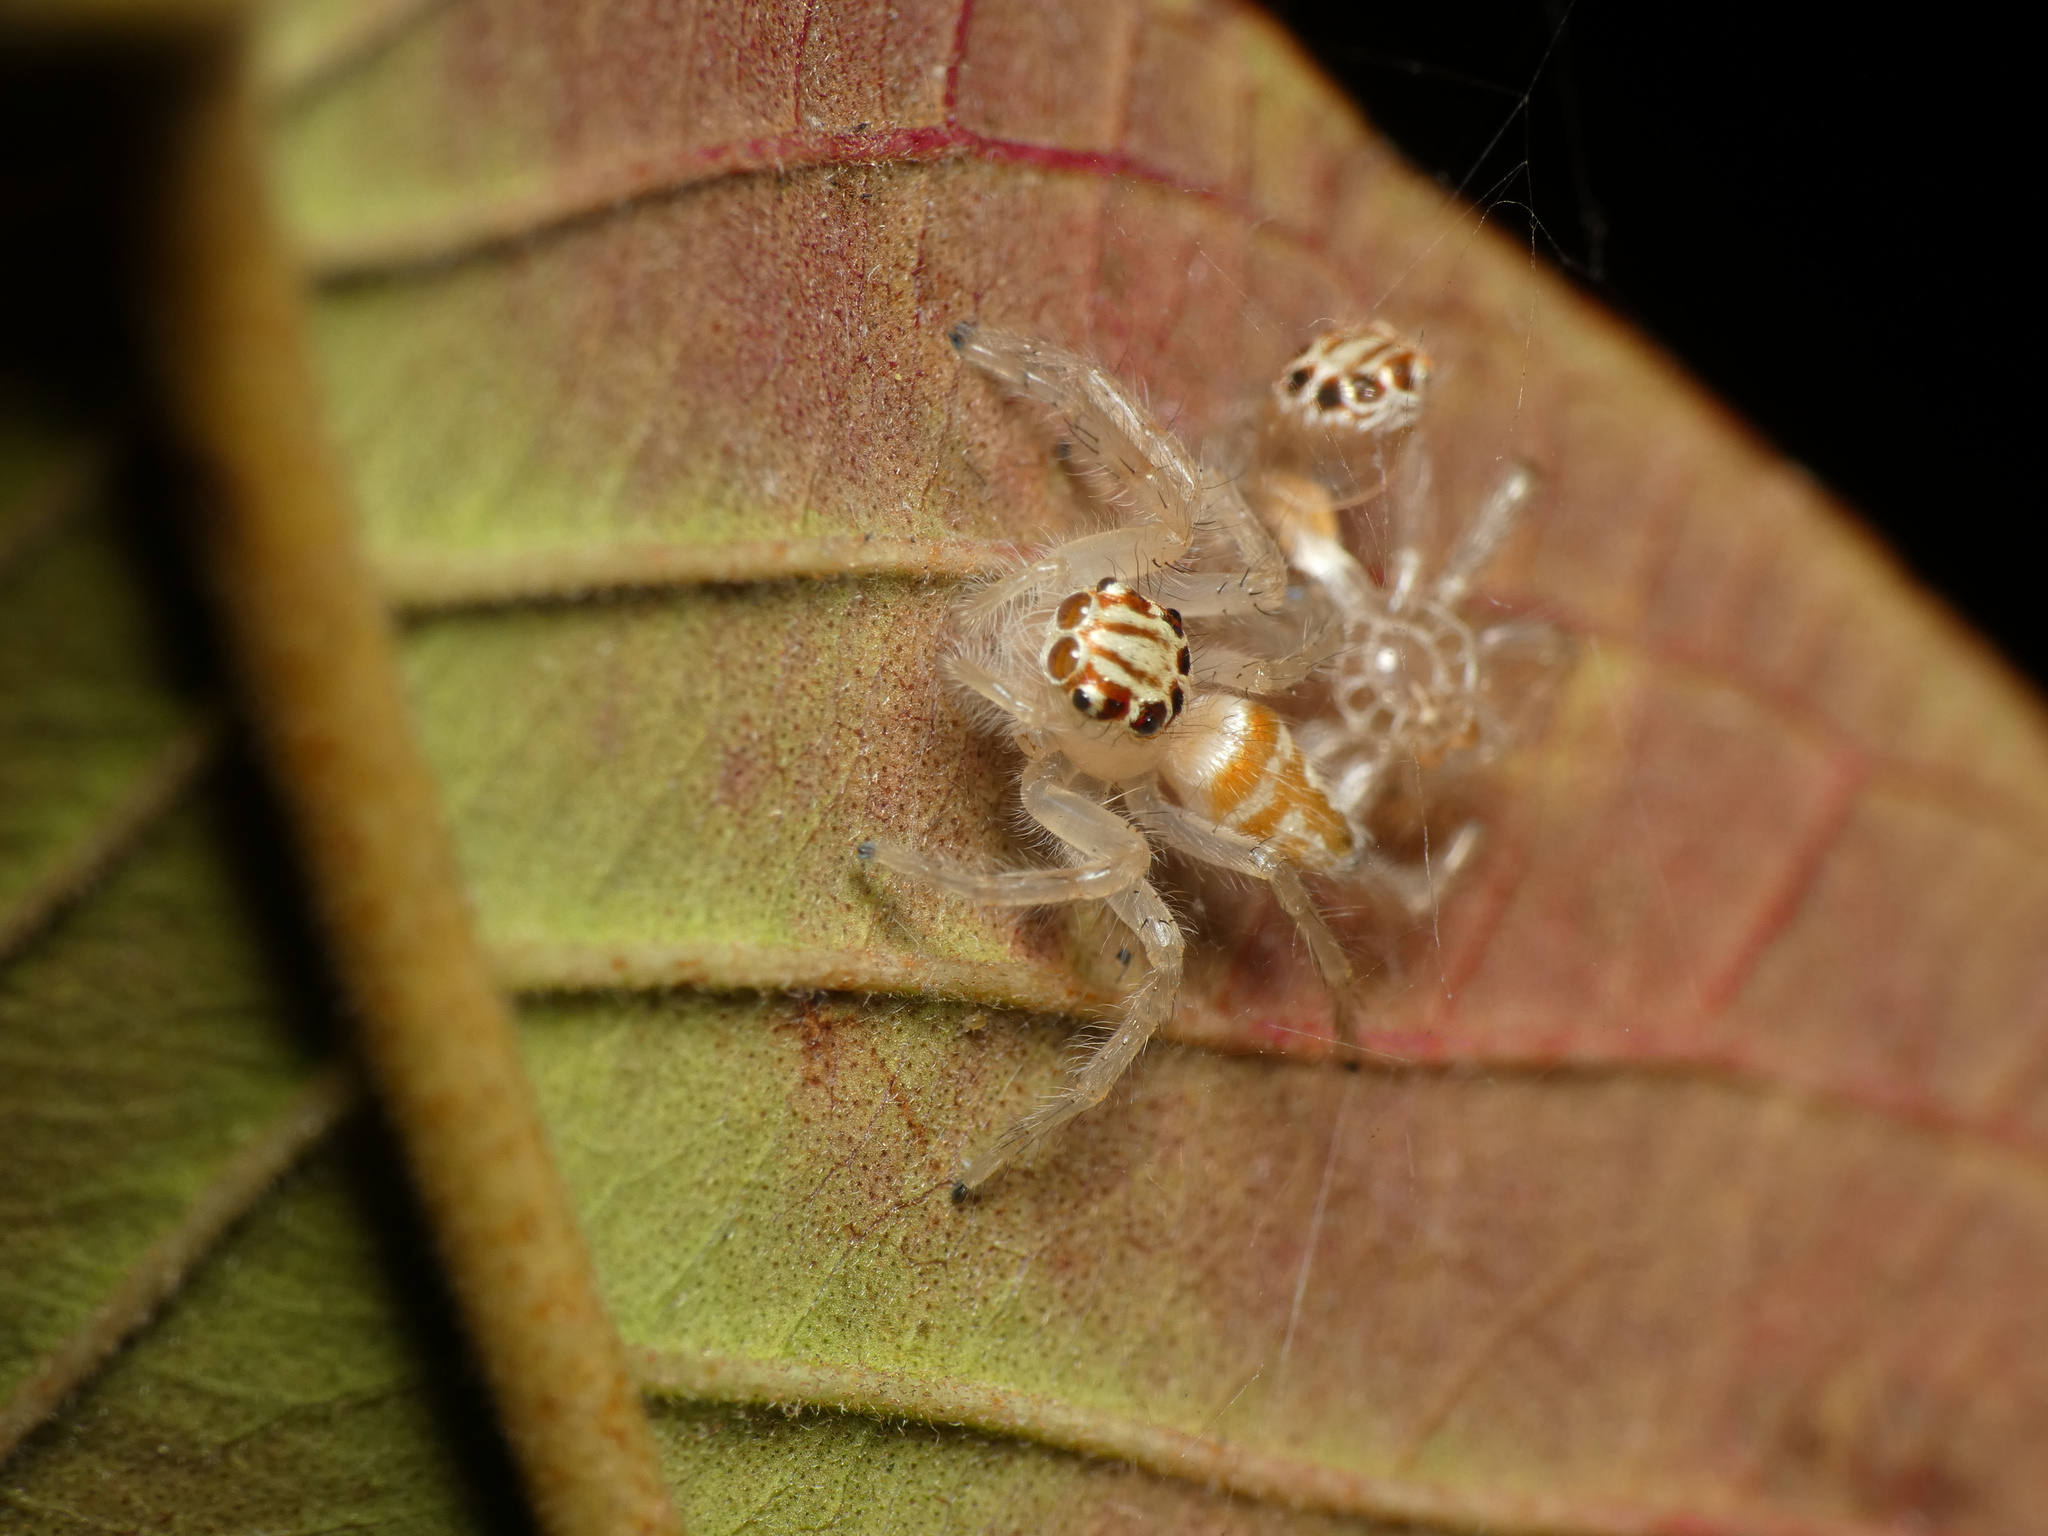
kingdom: Animalia
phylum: Arthropoda
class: Arachnida
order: Araneae
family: Salticidae
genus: Brancus
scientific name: Brancus mustelus
